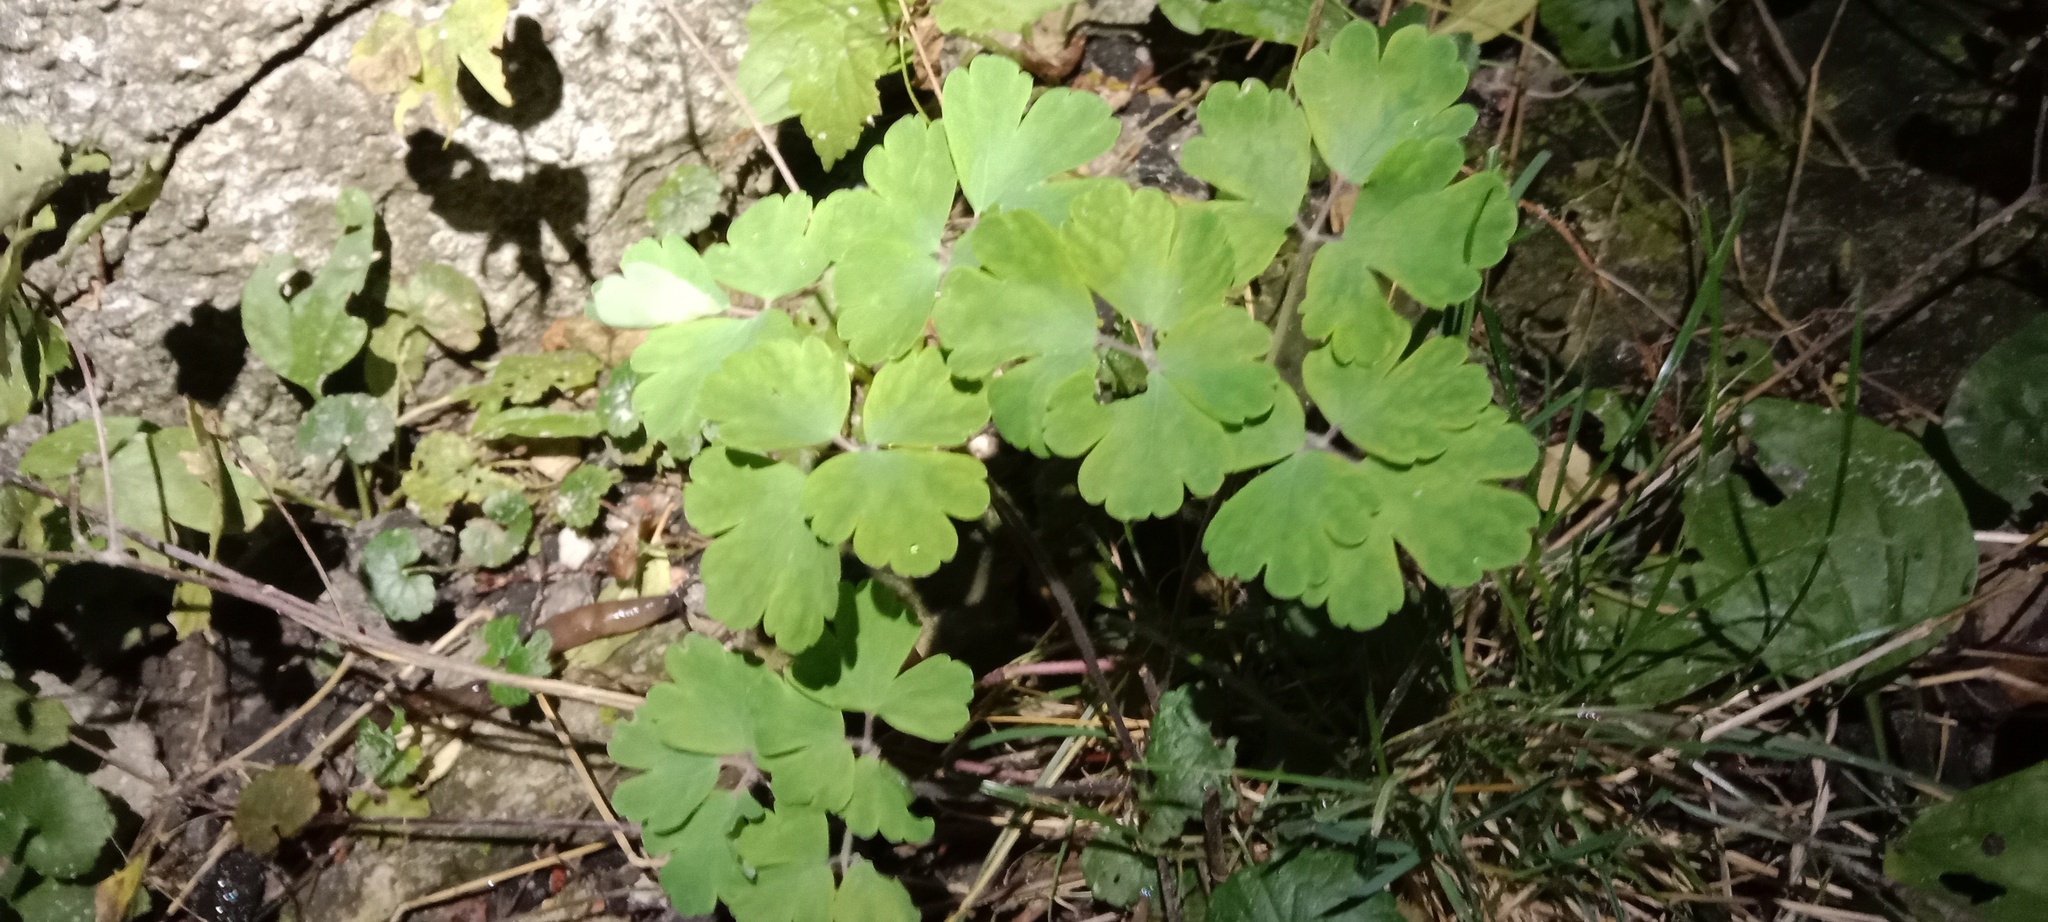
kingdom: Plantae
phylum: Tracheophyta
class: Magnoliopsida
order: Ranunculales
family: Ranunculaceae
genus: Aquilegia
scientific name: Aquilegia vulgaris
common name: Columbine
